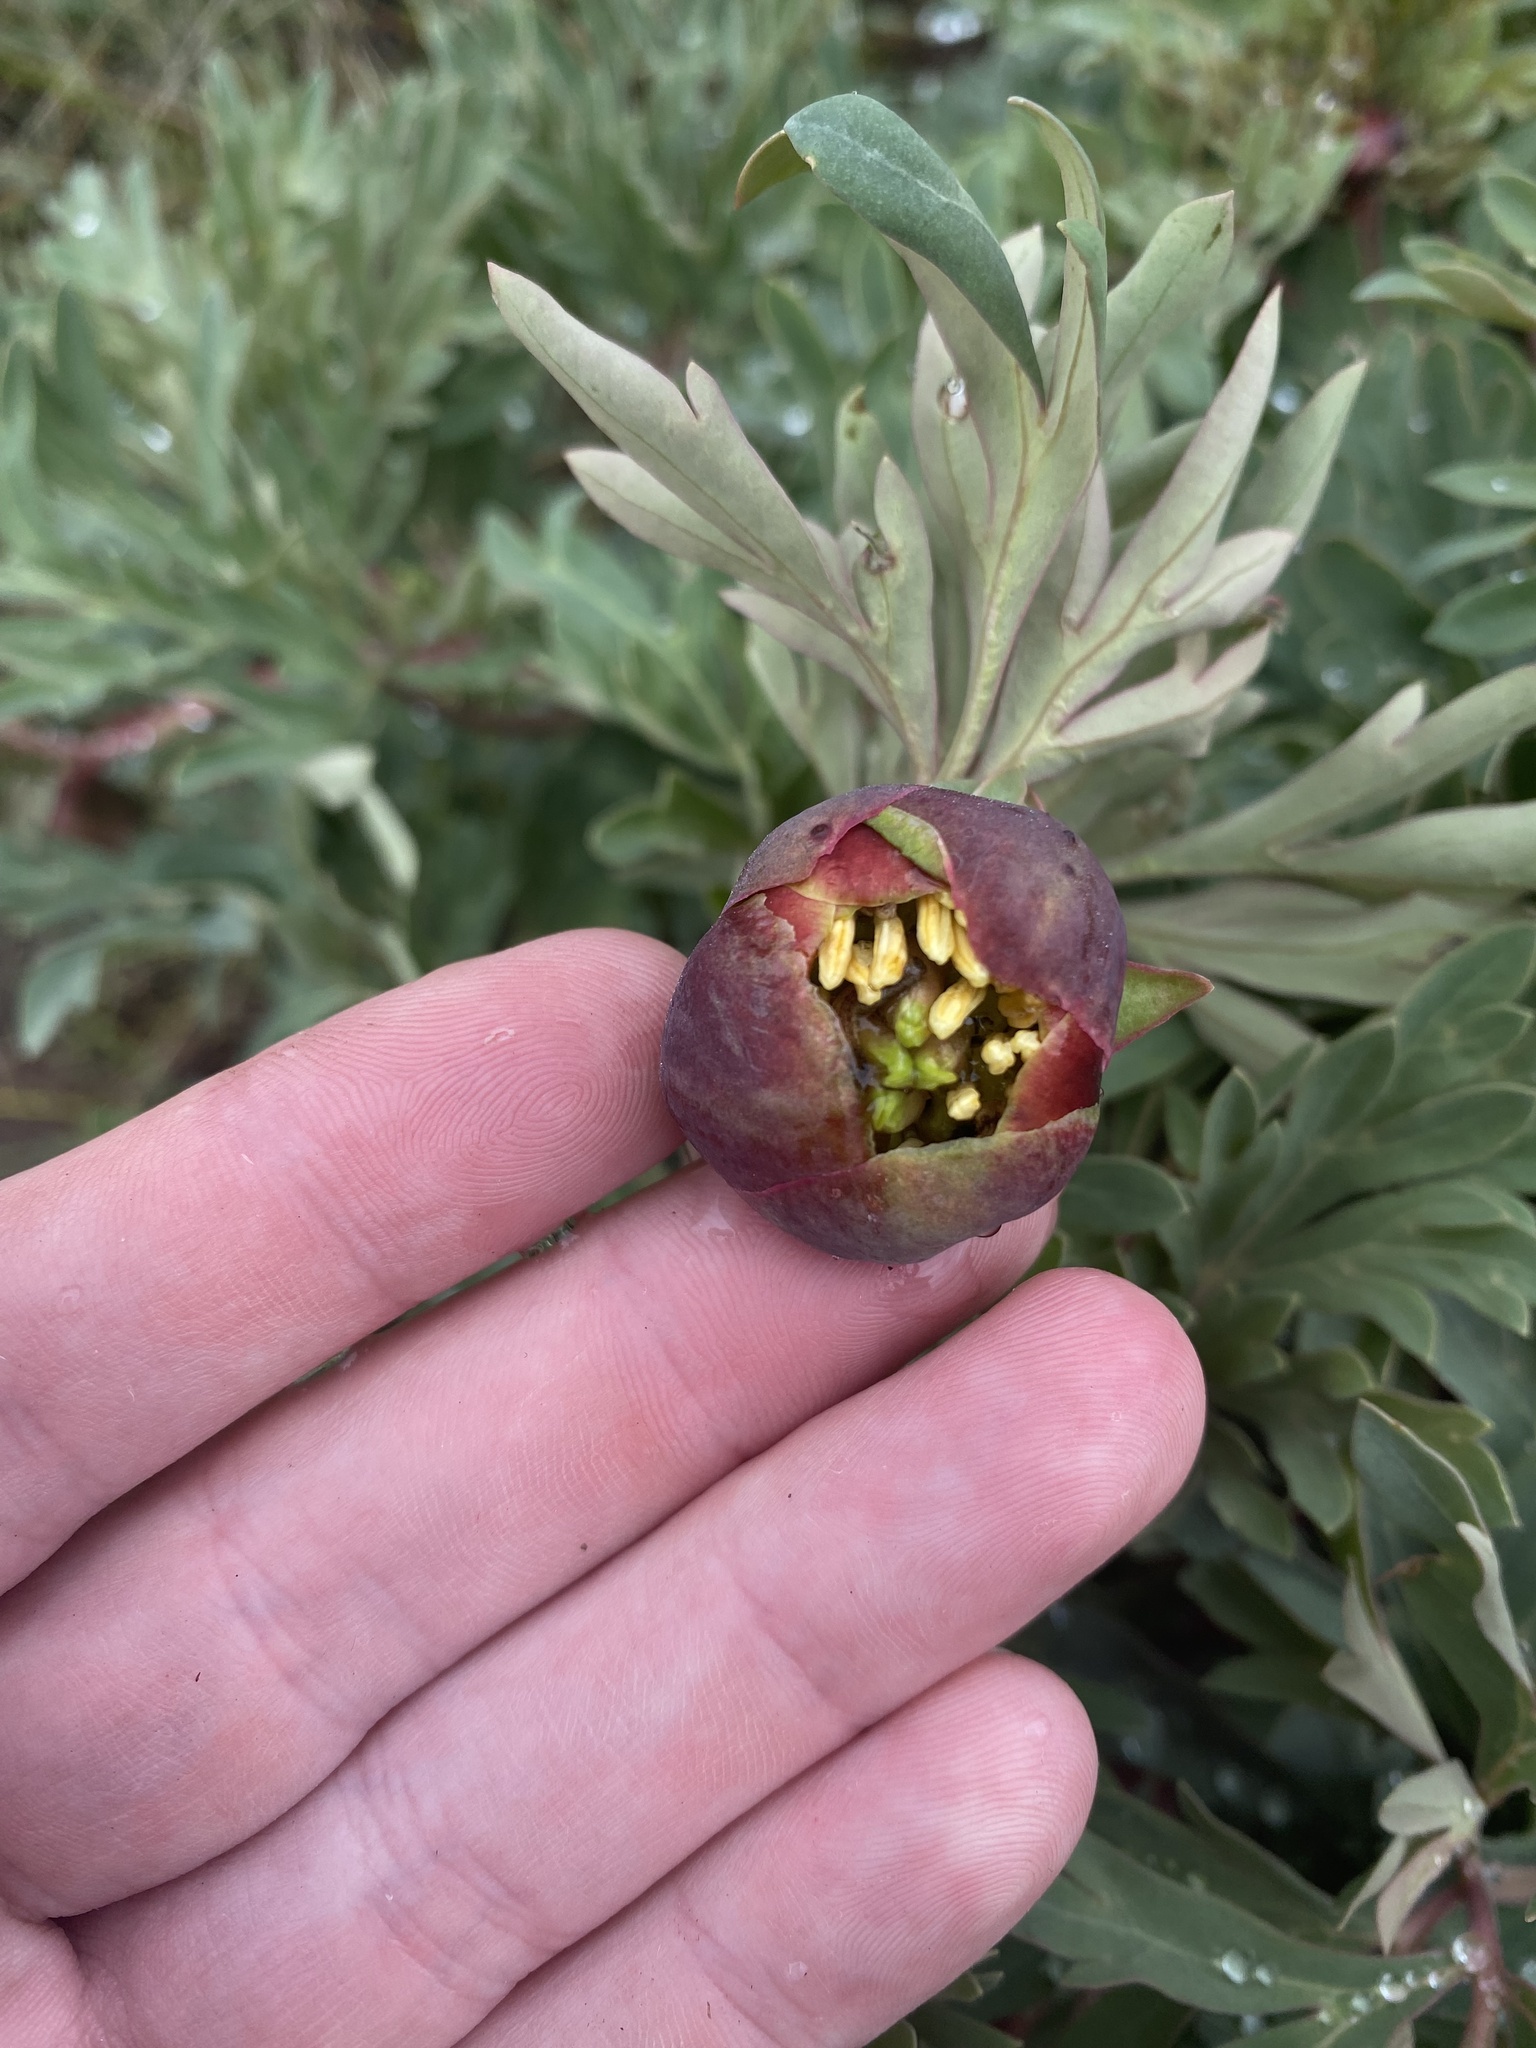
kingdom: Plantae
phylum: Tracheophyta
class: Magnoliopsida
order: Saxifragales
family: Paeoniaceae
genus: Paeonia
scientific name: Paeonia brownii
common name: Brown's peony
